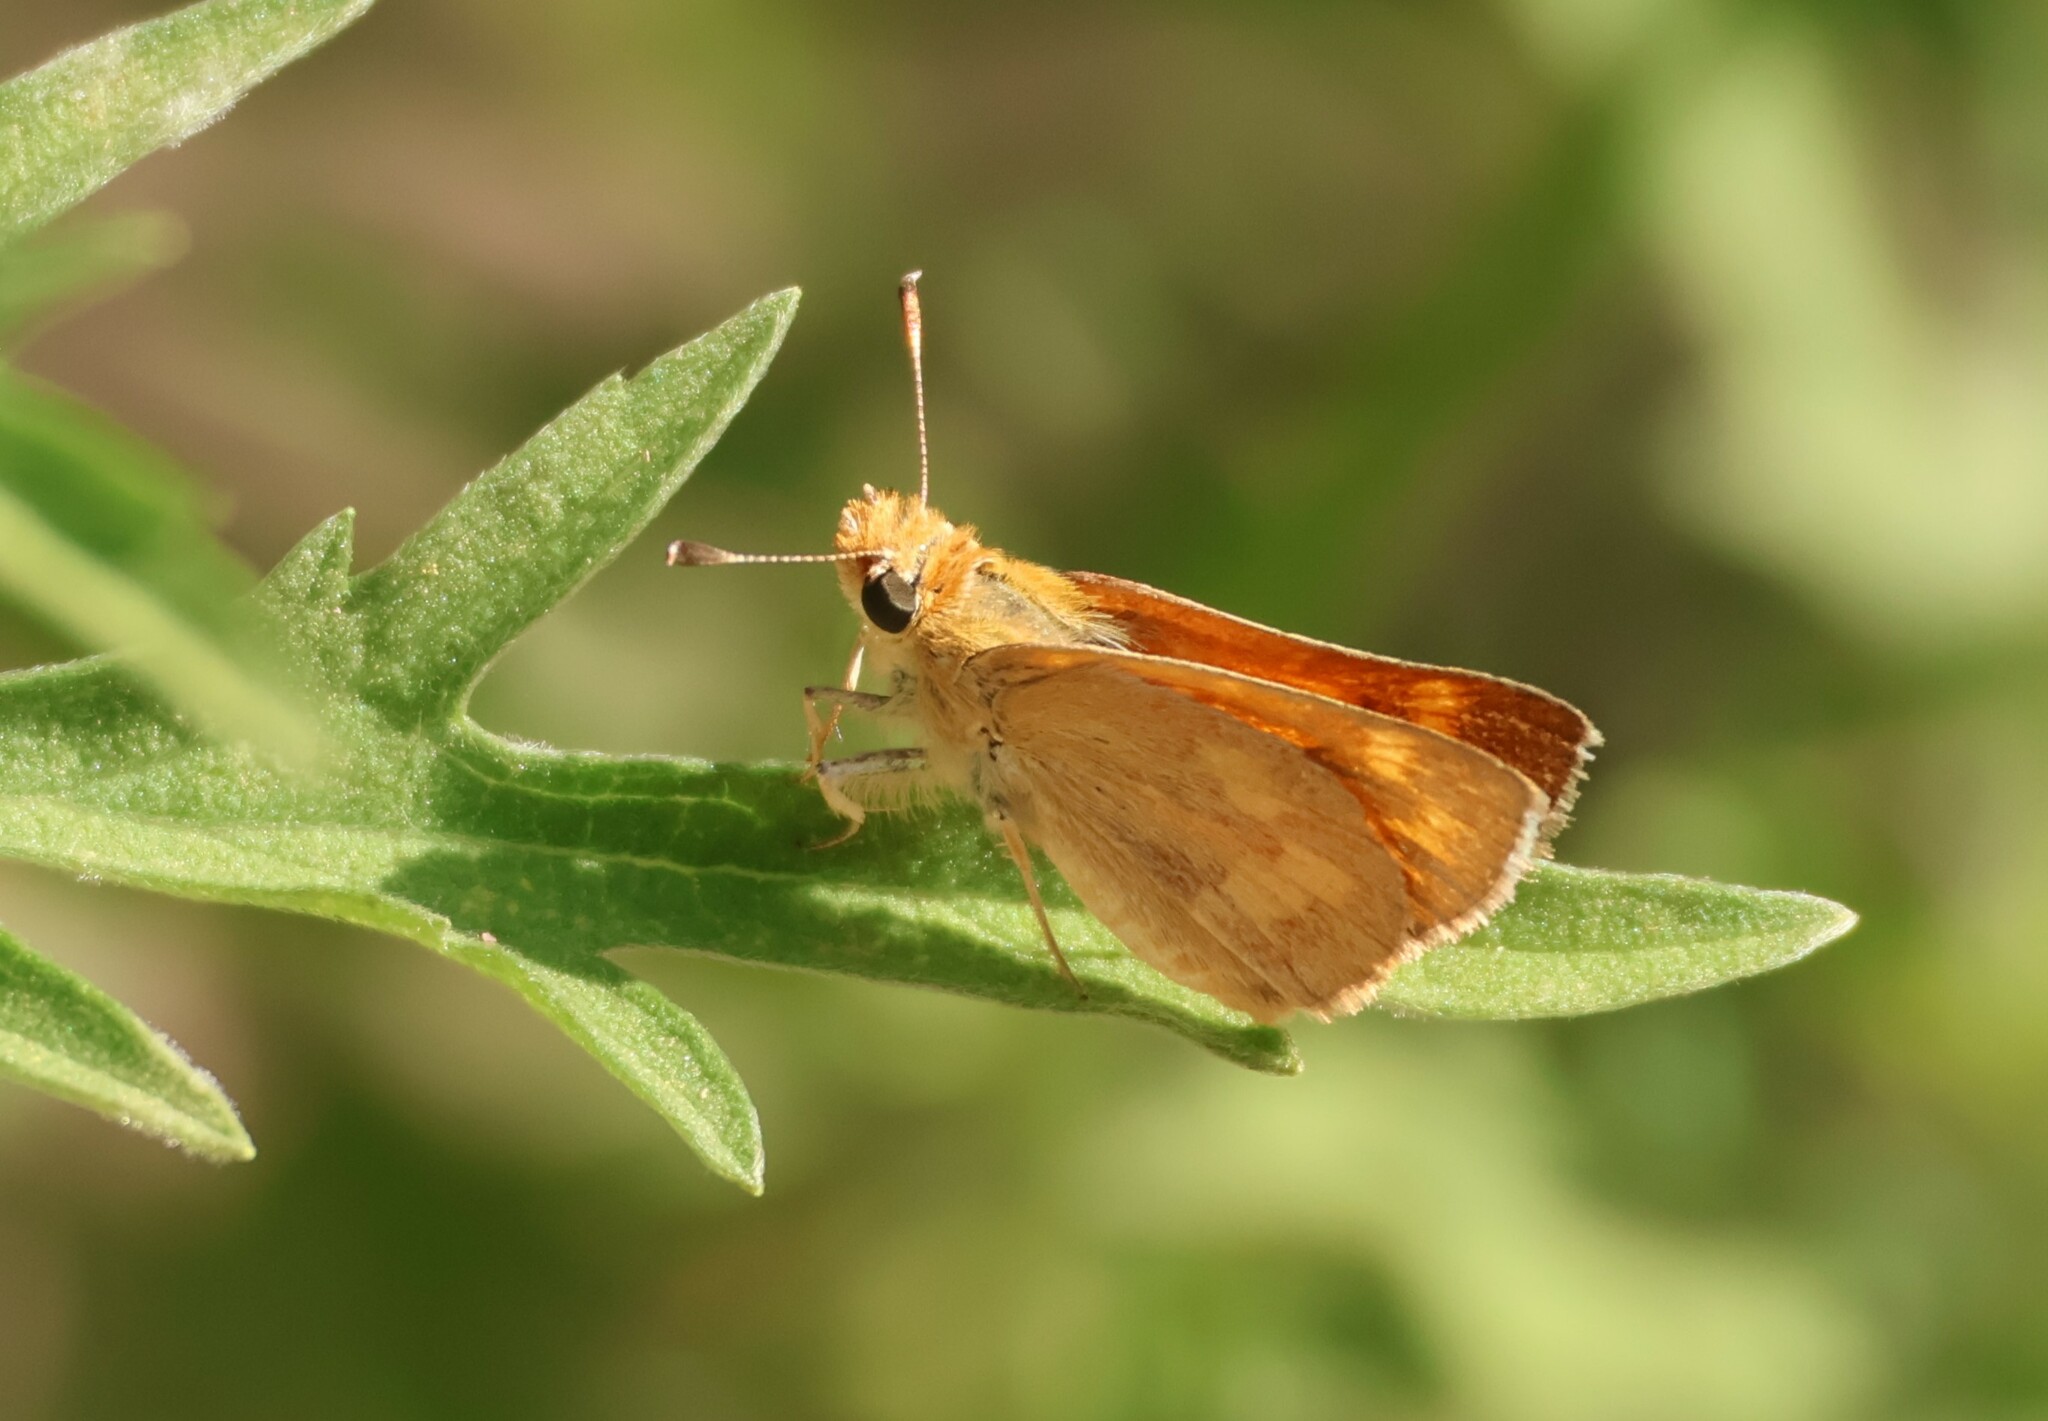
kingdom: Animalia
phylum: Arthropoda
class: Insecta
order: Lepidoptera
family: Hesperiidae
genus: Ochlodes
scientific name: Ochlodes sylvanoides
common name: Woodland skipper
